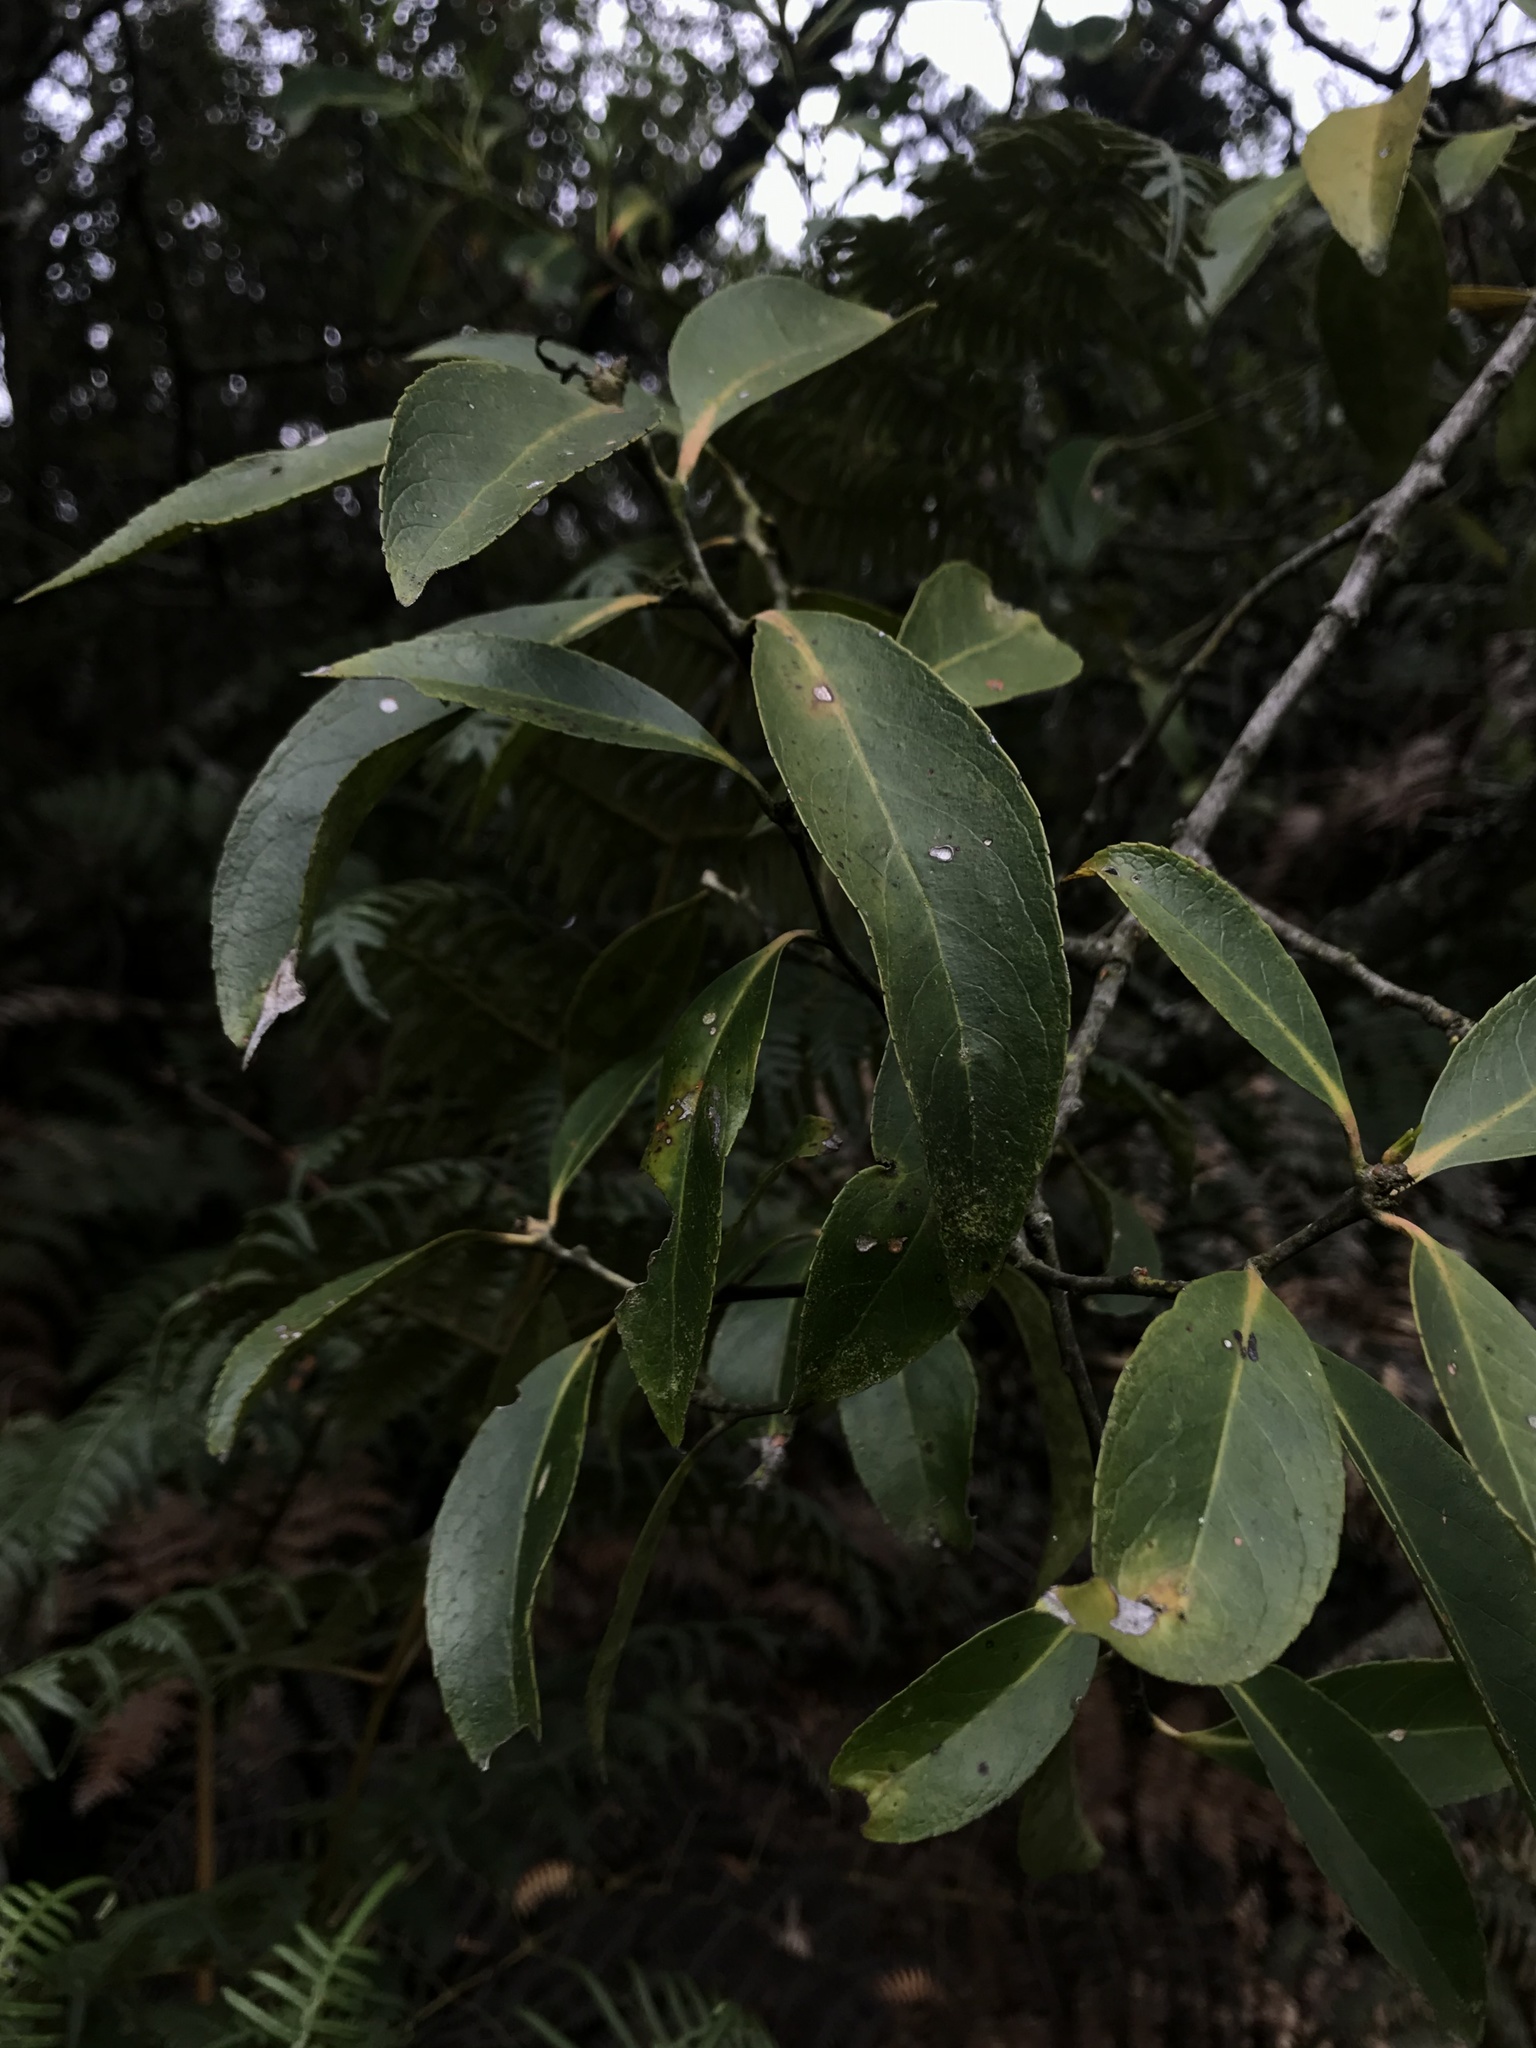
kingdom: Plantae
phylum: Tracheophyta
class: Magnoliopsida
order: Celastrales
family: Celastraceae
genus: Maytenus
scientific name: Maytenus laxiflora
